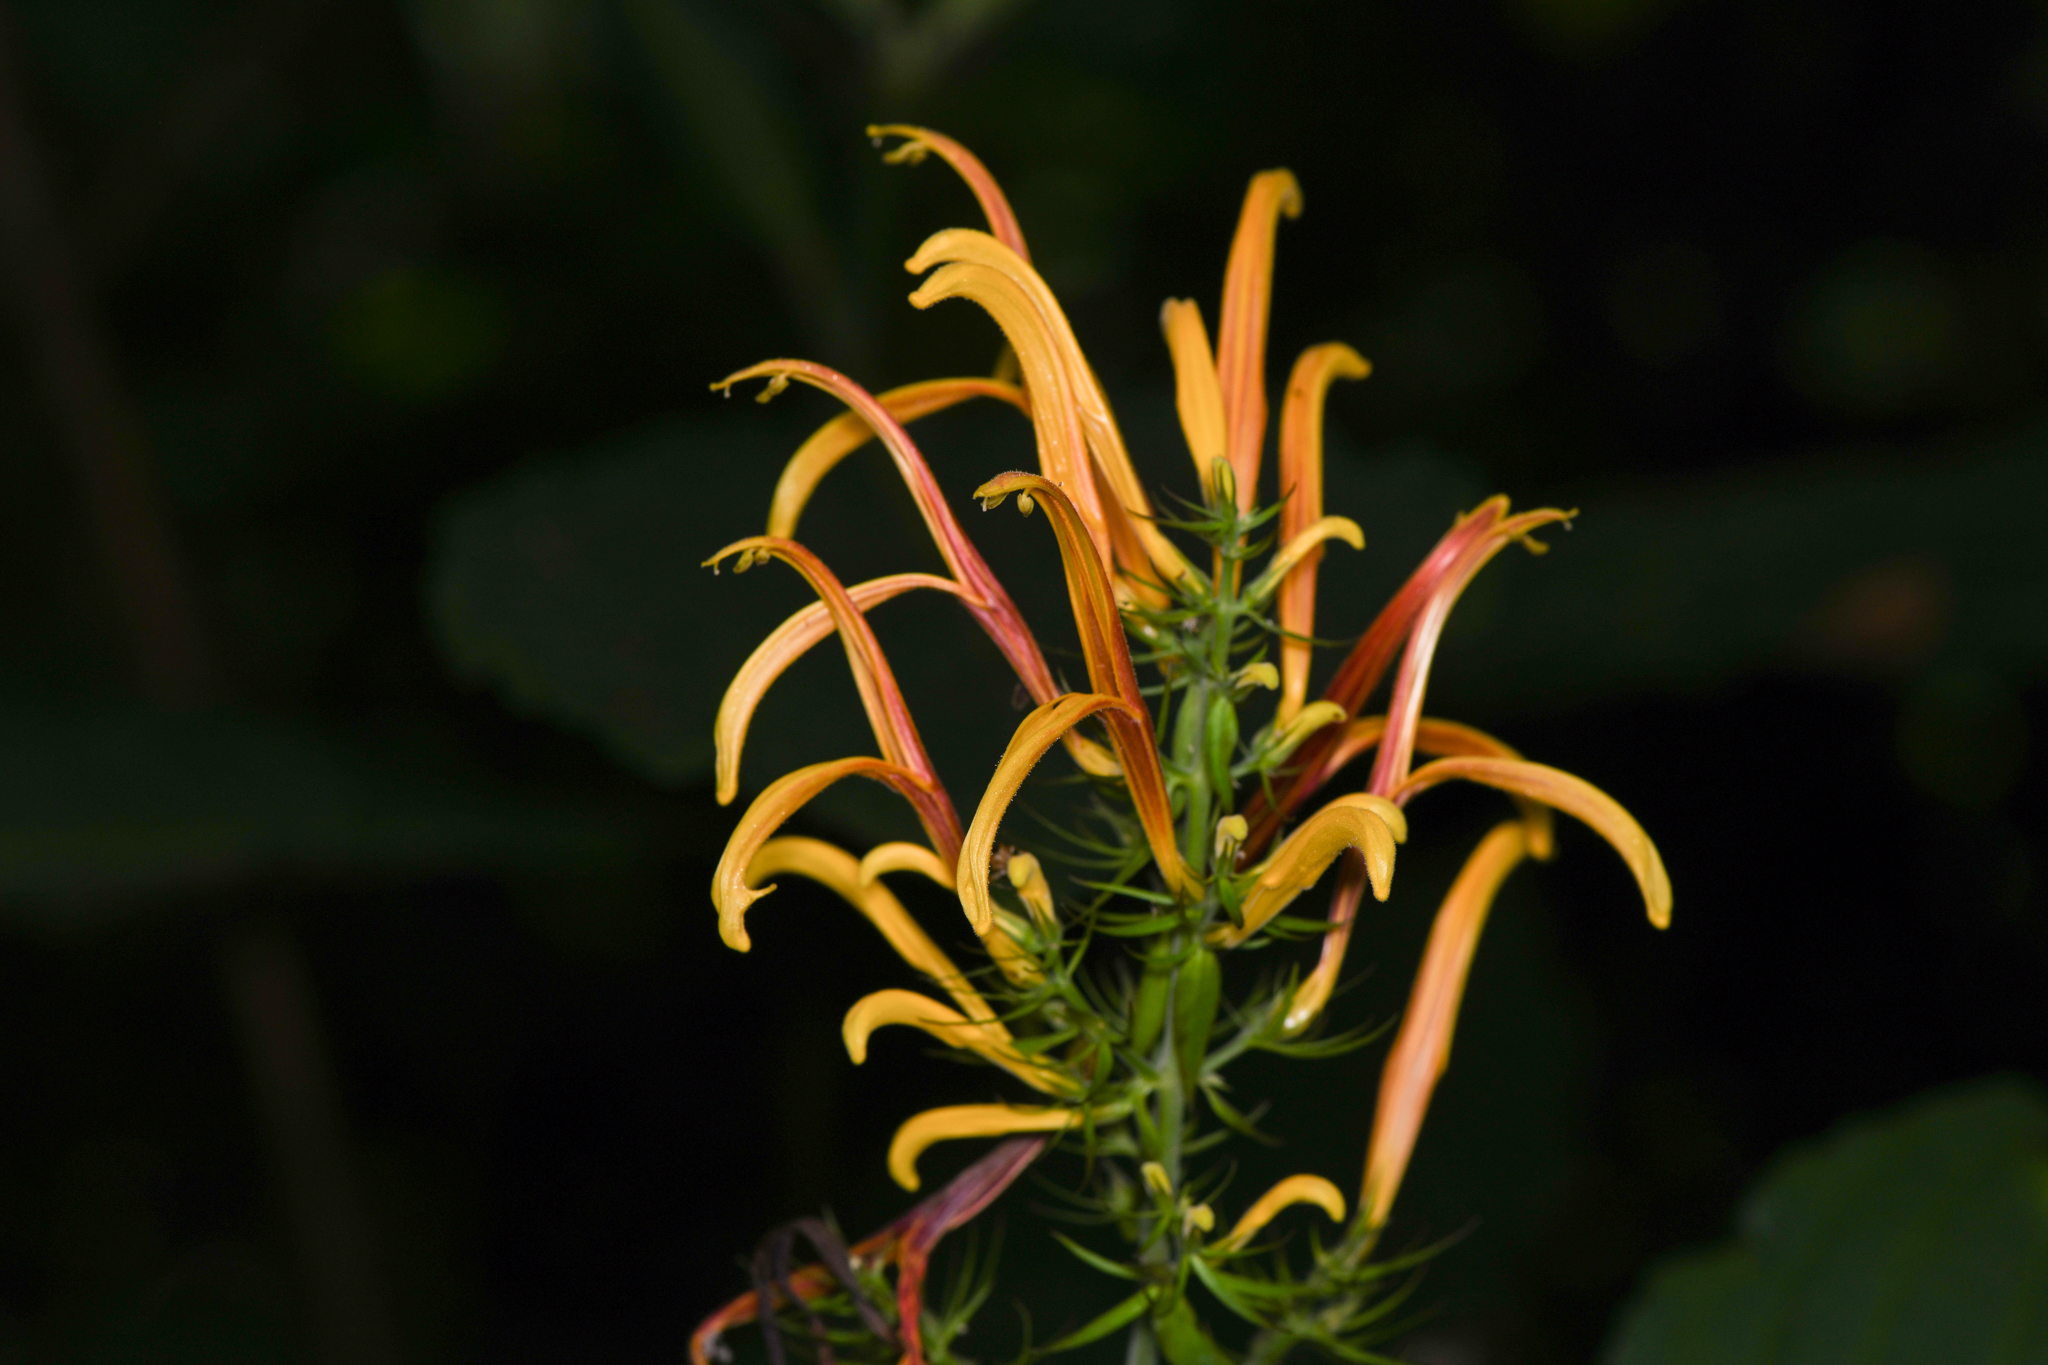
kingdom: Plantae
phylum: Tracheophyta
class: Magnoliopsida
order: Lamiales
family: Acanthaceae
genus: Justicia
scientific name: Justicia aurea
